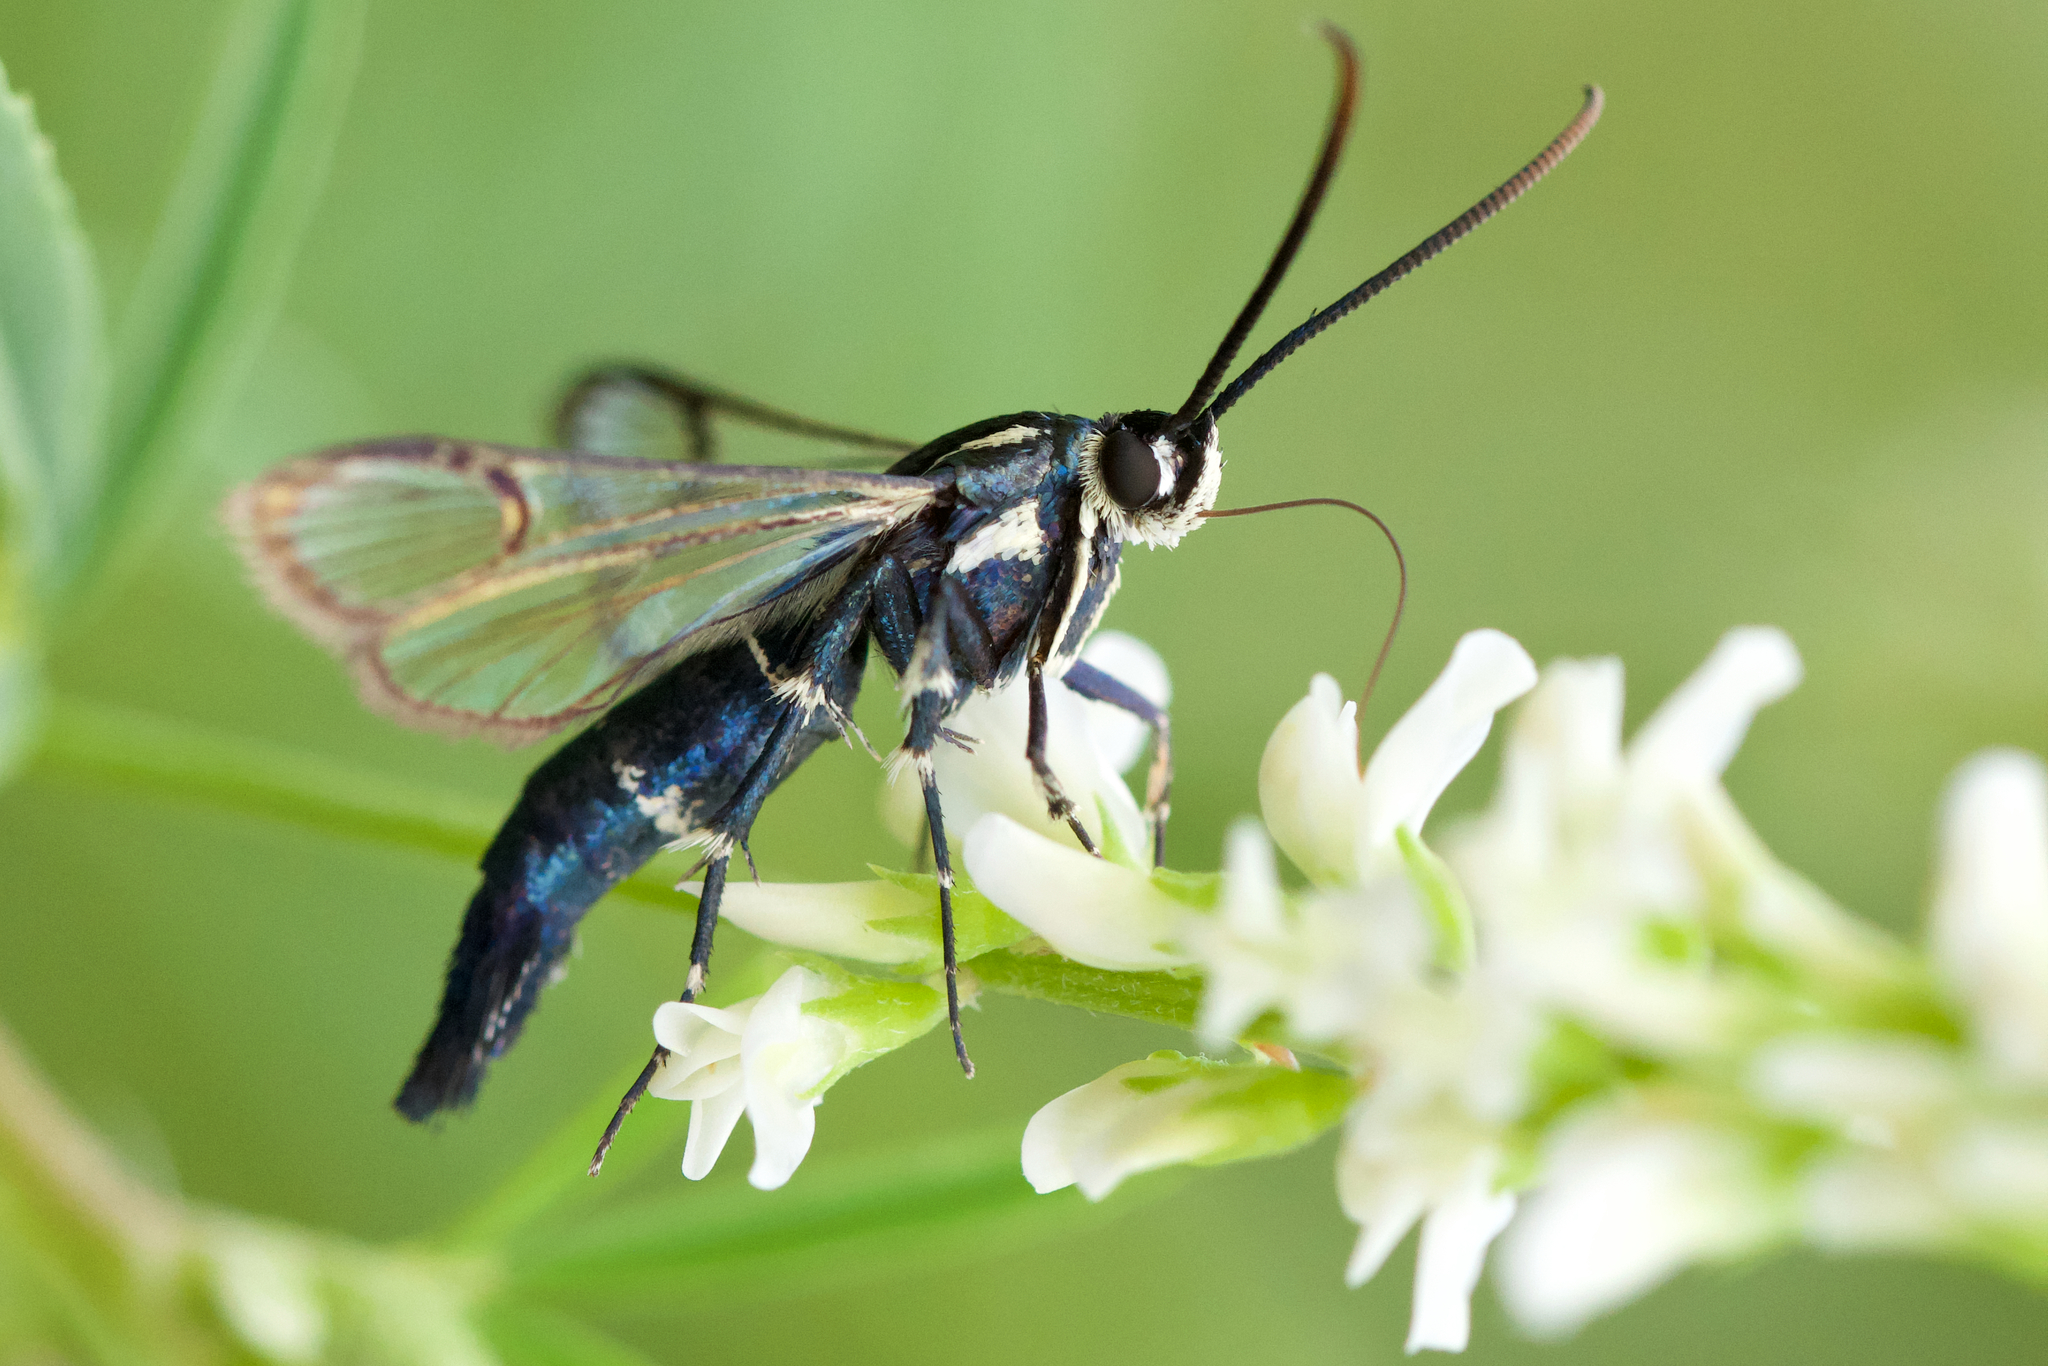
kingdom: Animalia
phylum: Arthropoda
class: Insecta
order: Lepidoptera
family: Sesiidae
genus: Synanthedon
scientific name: Synanthedon pictipes
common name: Lesser peachtree borer moth
